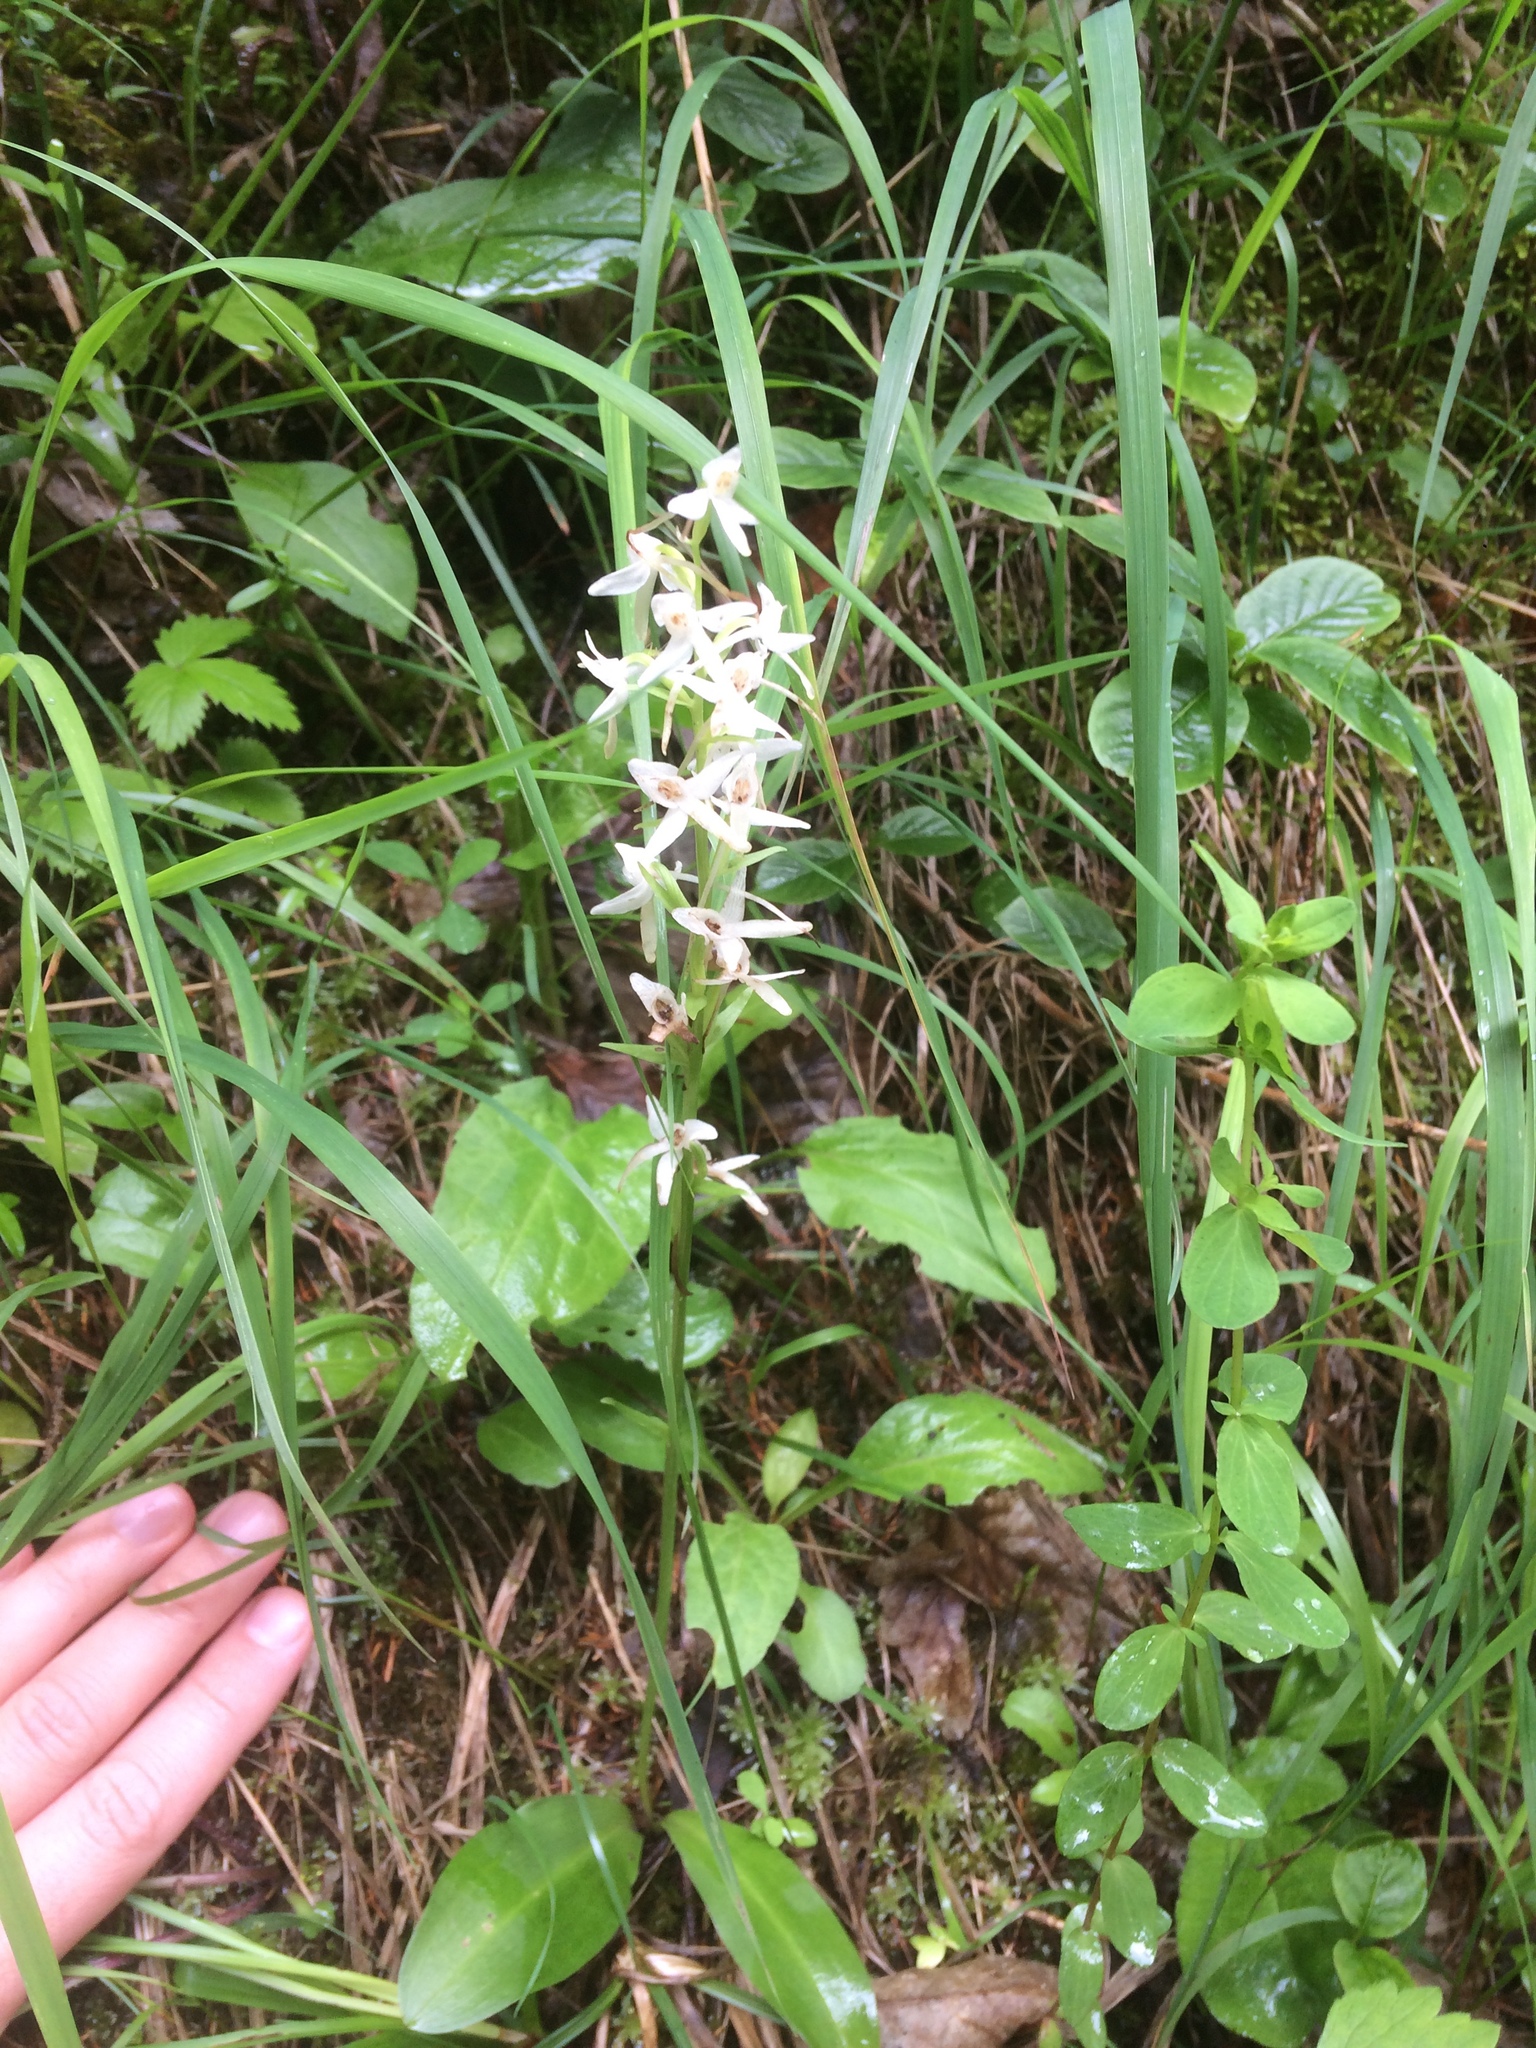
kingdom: Plantae
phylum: Tracheophyta
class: Liliopsida
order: Asparagales
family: Orchidaceae
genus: Platanthera
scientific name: Platanthera bifolia
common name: Lesser butterfly-orchid
